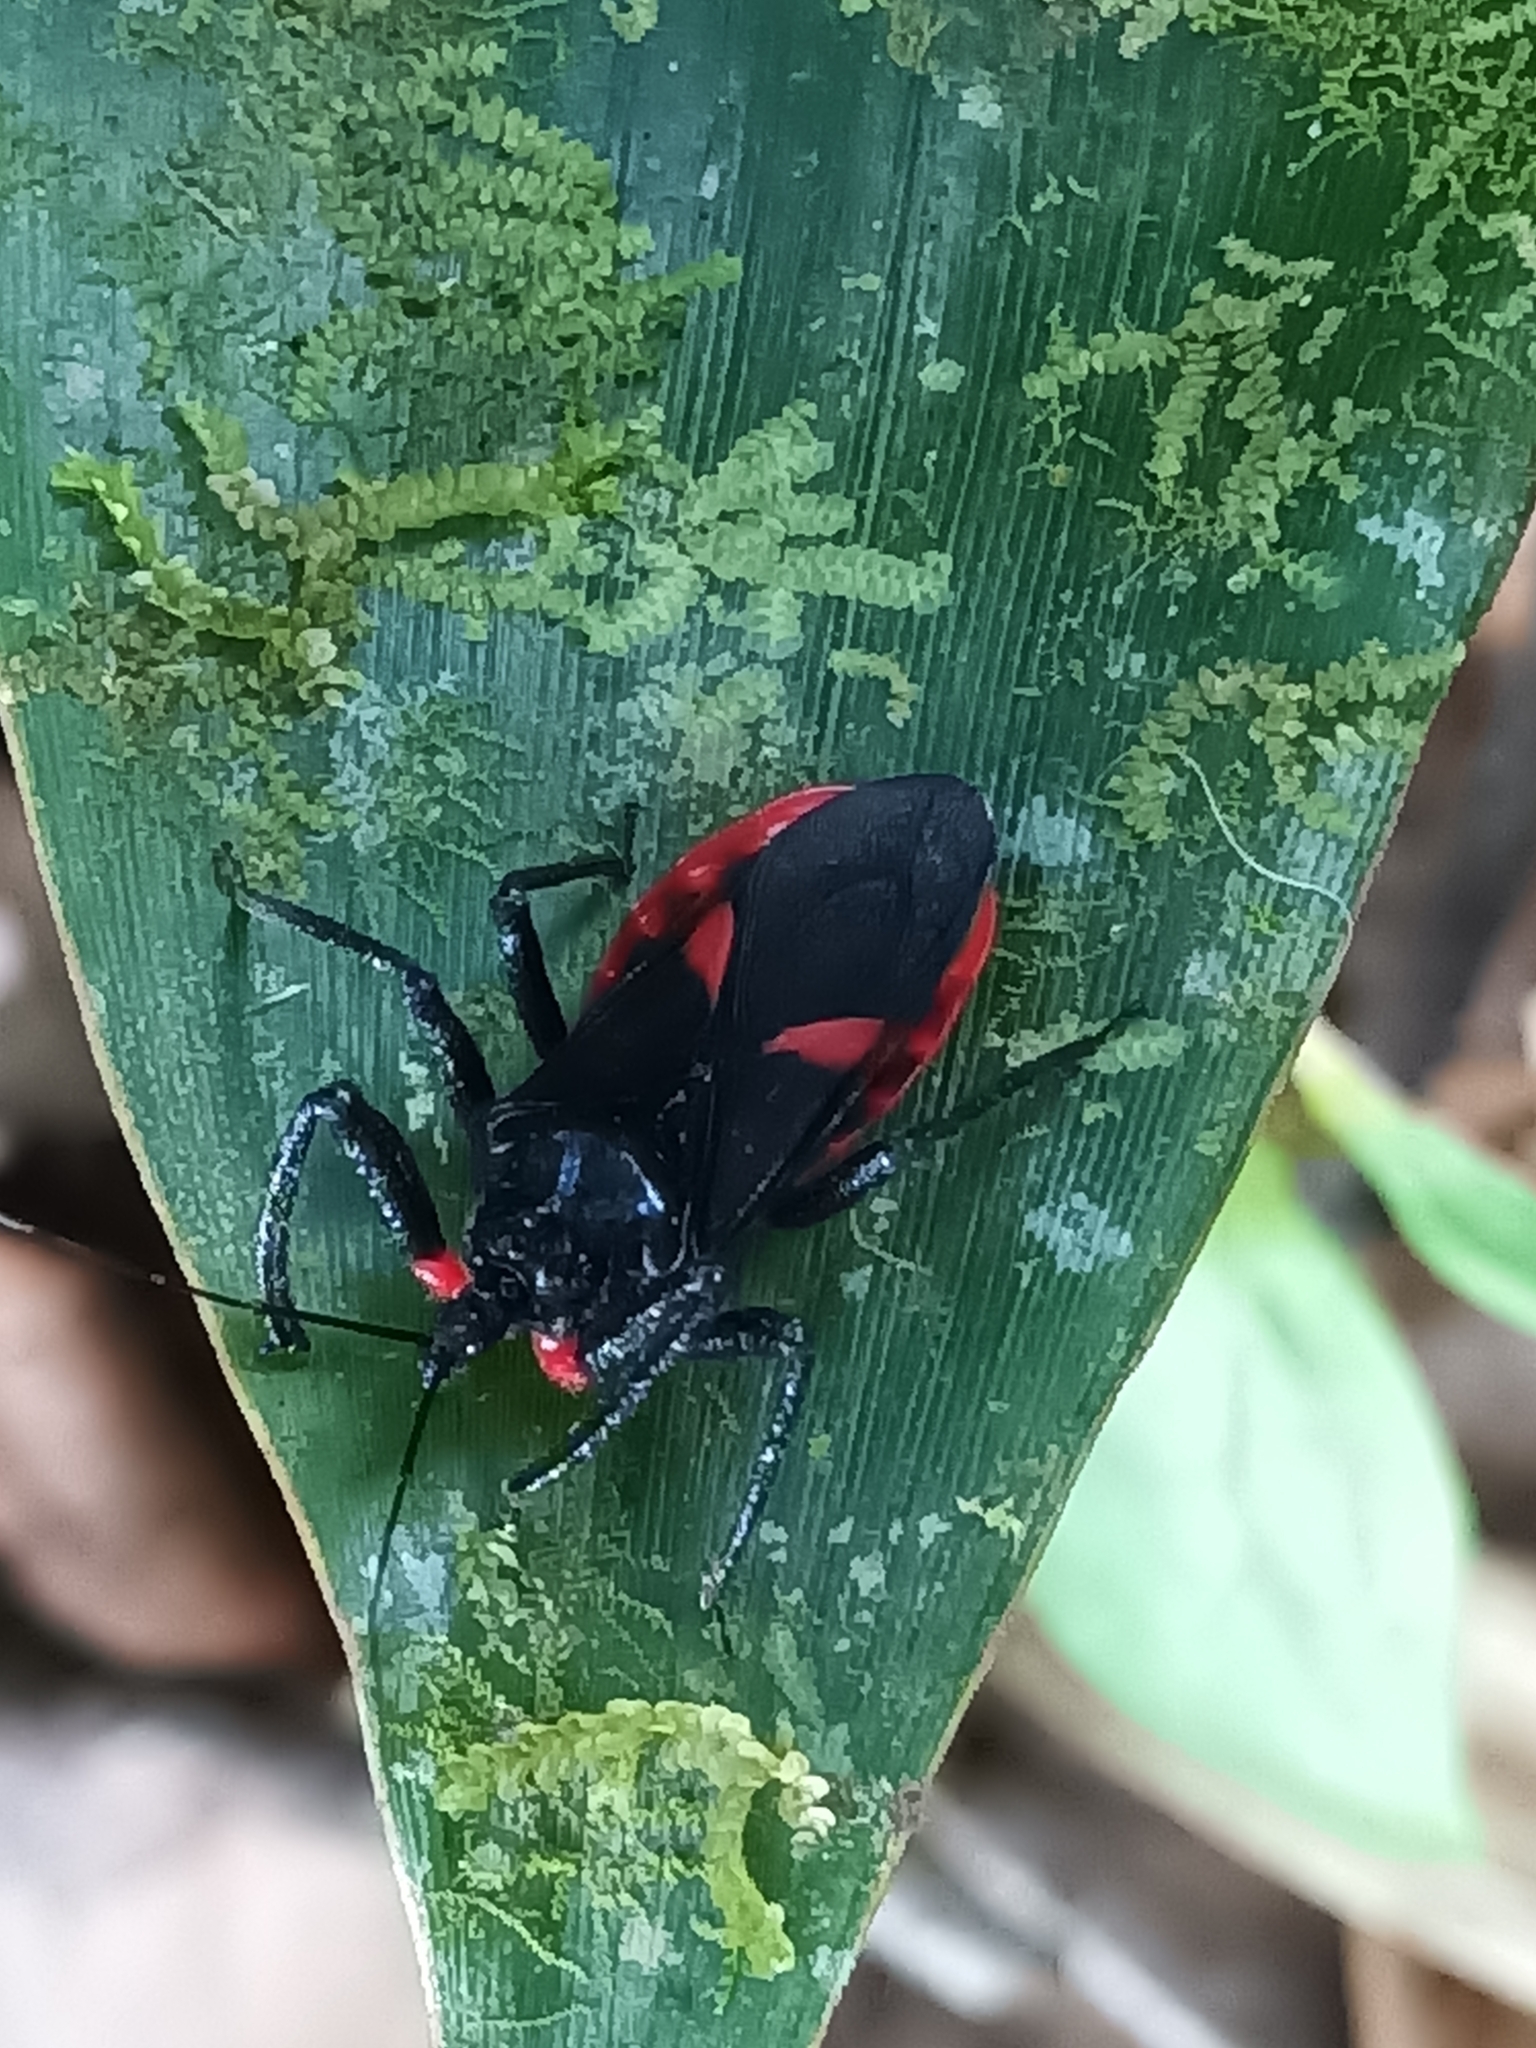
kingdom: Animalia
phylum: Arthropoda
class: Insecta
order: Hemiptera
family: Reduviidae
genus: Micrauchenus
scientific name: Micrauchenus lineola
